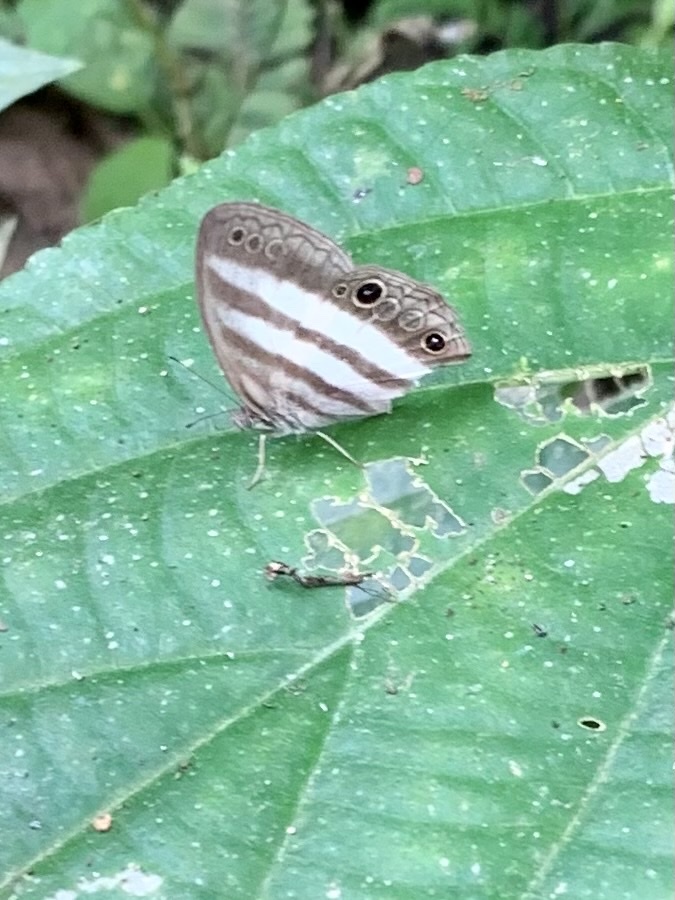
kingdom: Animalia
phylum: Arthropoda
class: Insecta
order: Lepidoptera
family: Nymphalidae
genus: Pareuptychia
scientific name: Pareuptychia hesione
